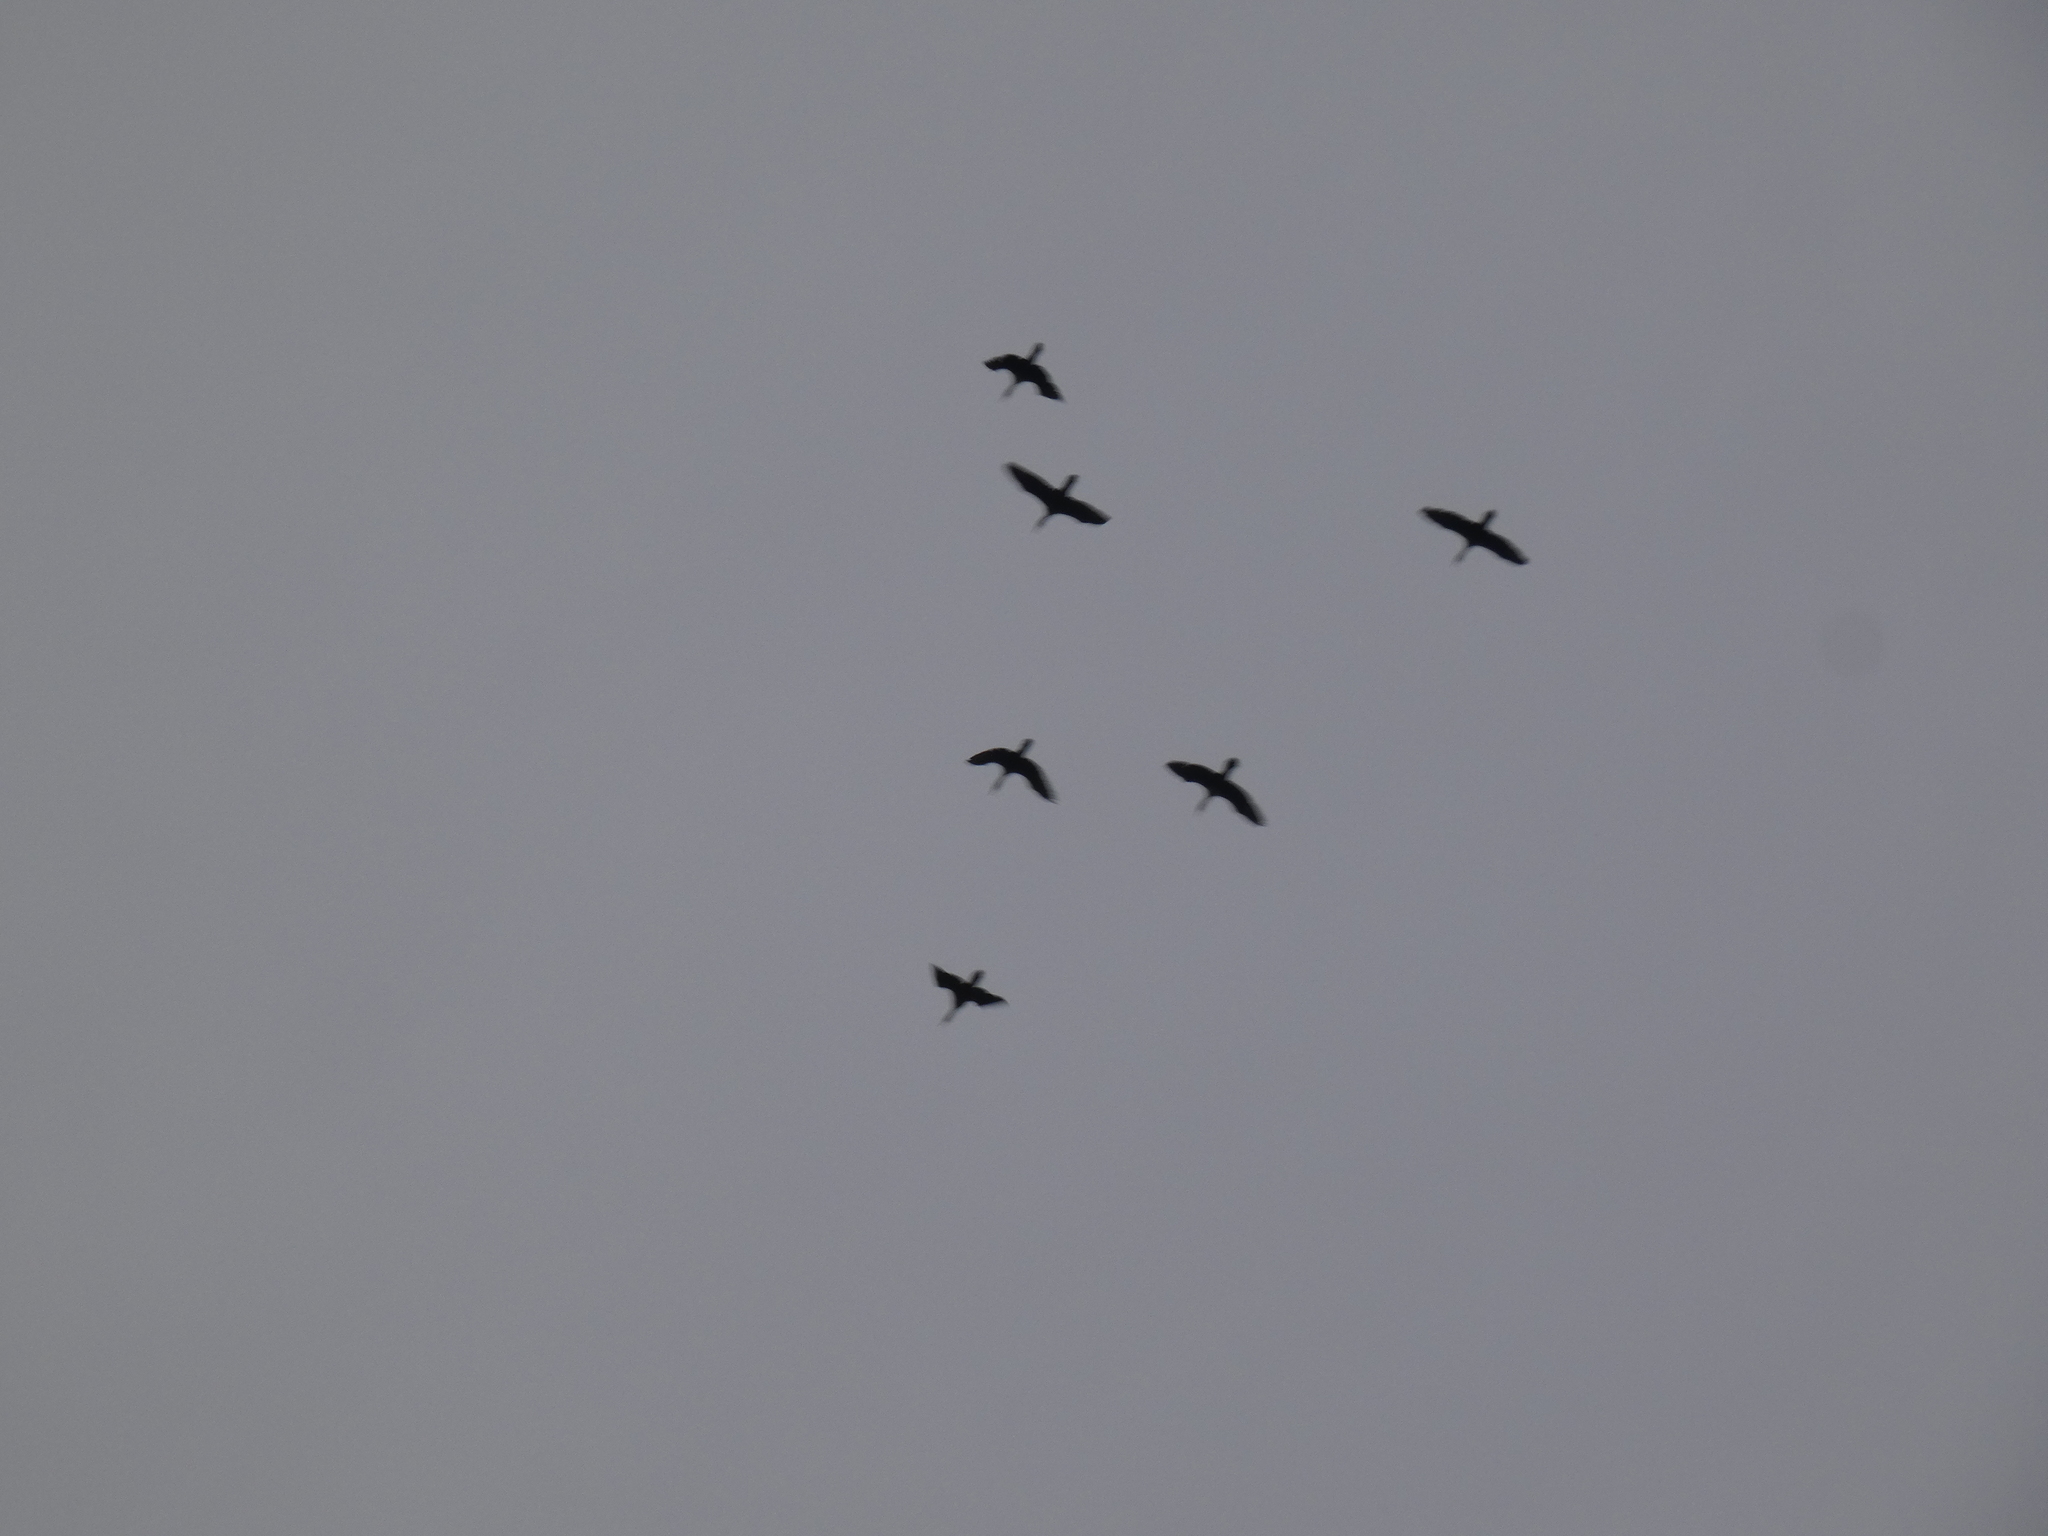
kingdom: Animalia
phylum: Chordata
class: Aves
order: Suliformes
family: Phalacrocoracidae
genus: Phalacrocorax
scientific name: Phalacrocorax auritus
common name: Double-crested cormorant
